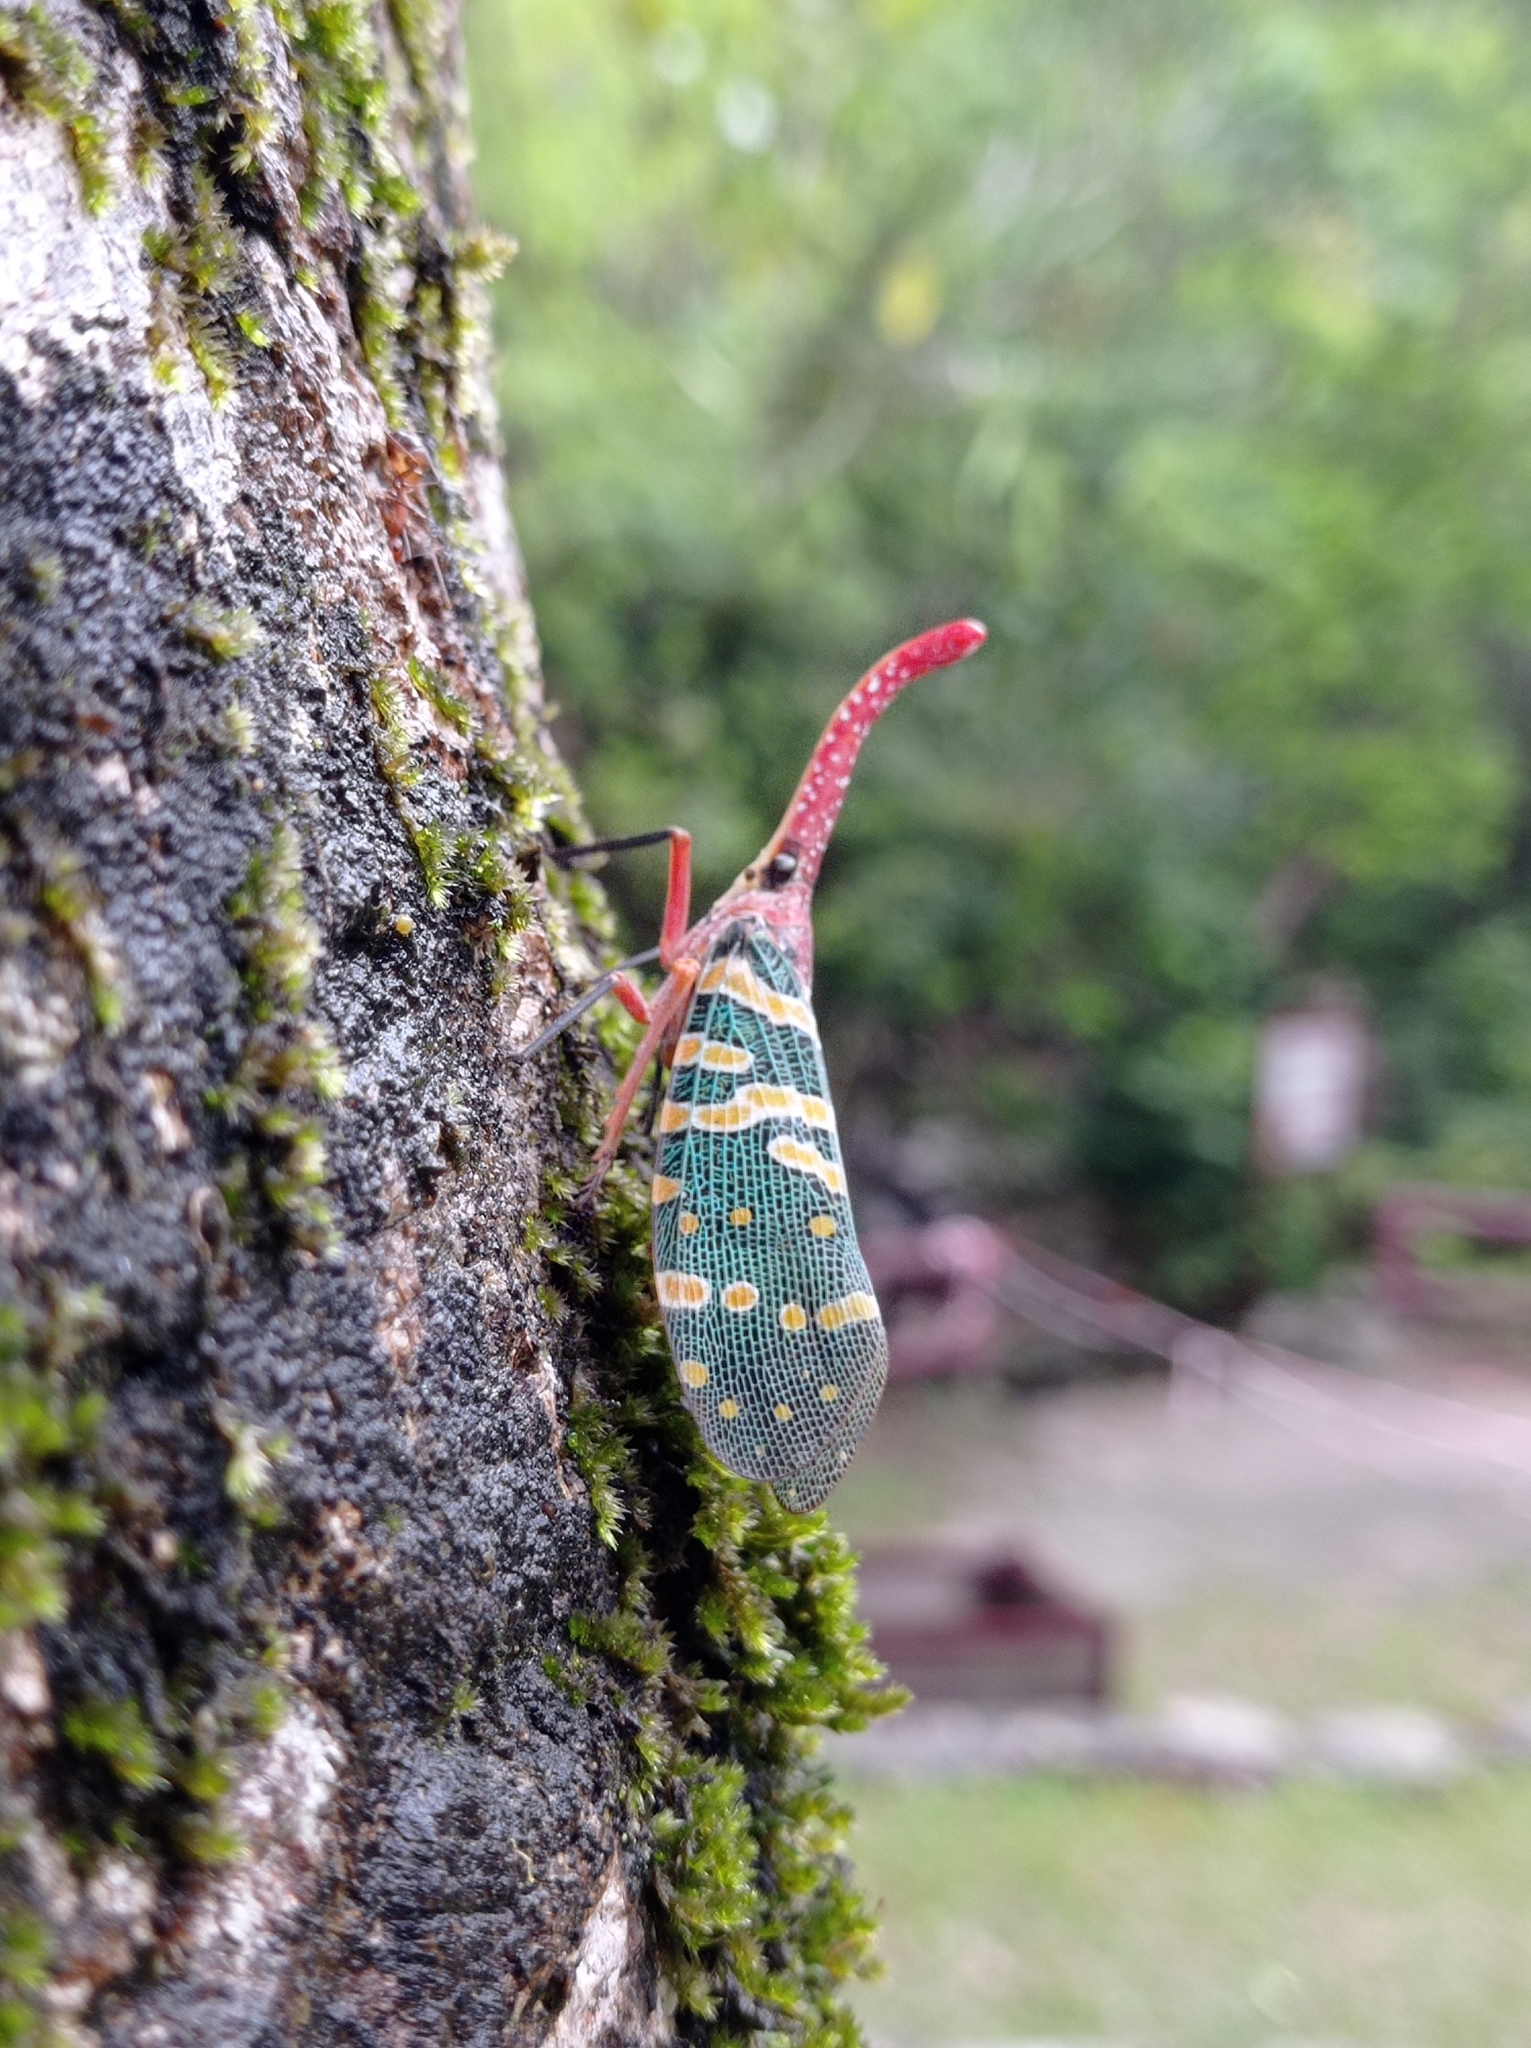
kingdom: Animalia
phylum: Arthropoda
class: Insecta
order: Hemiptera
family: Fulgoridae
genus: Pyrops
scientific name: Pyrops candelaria
